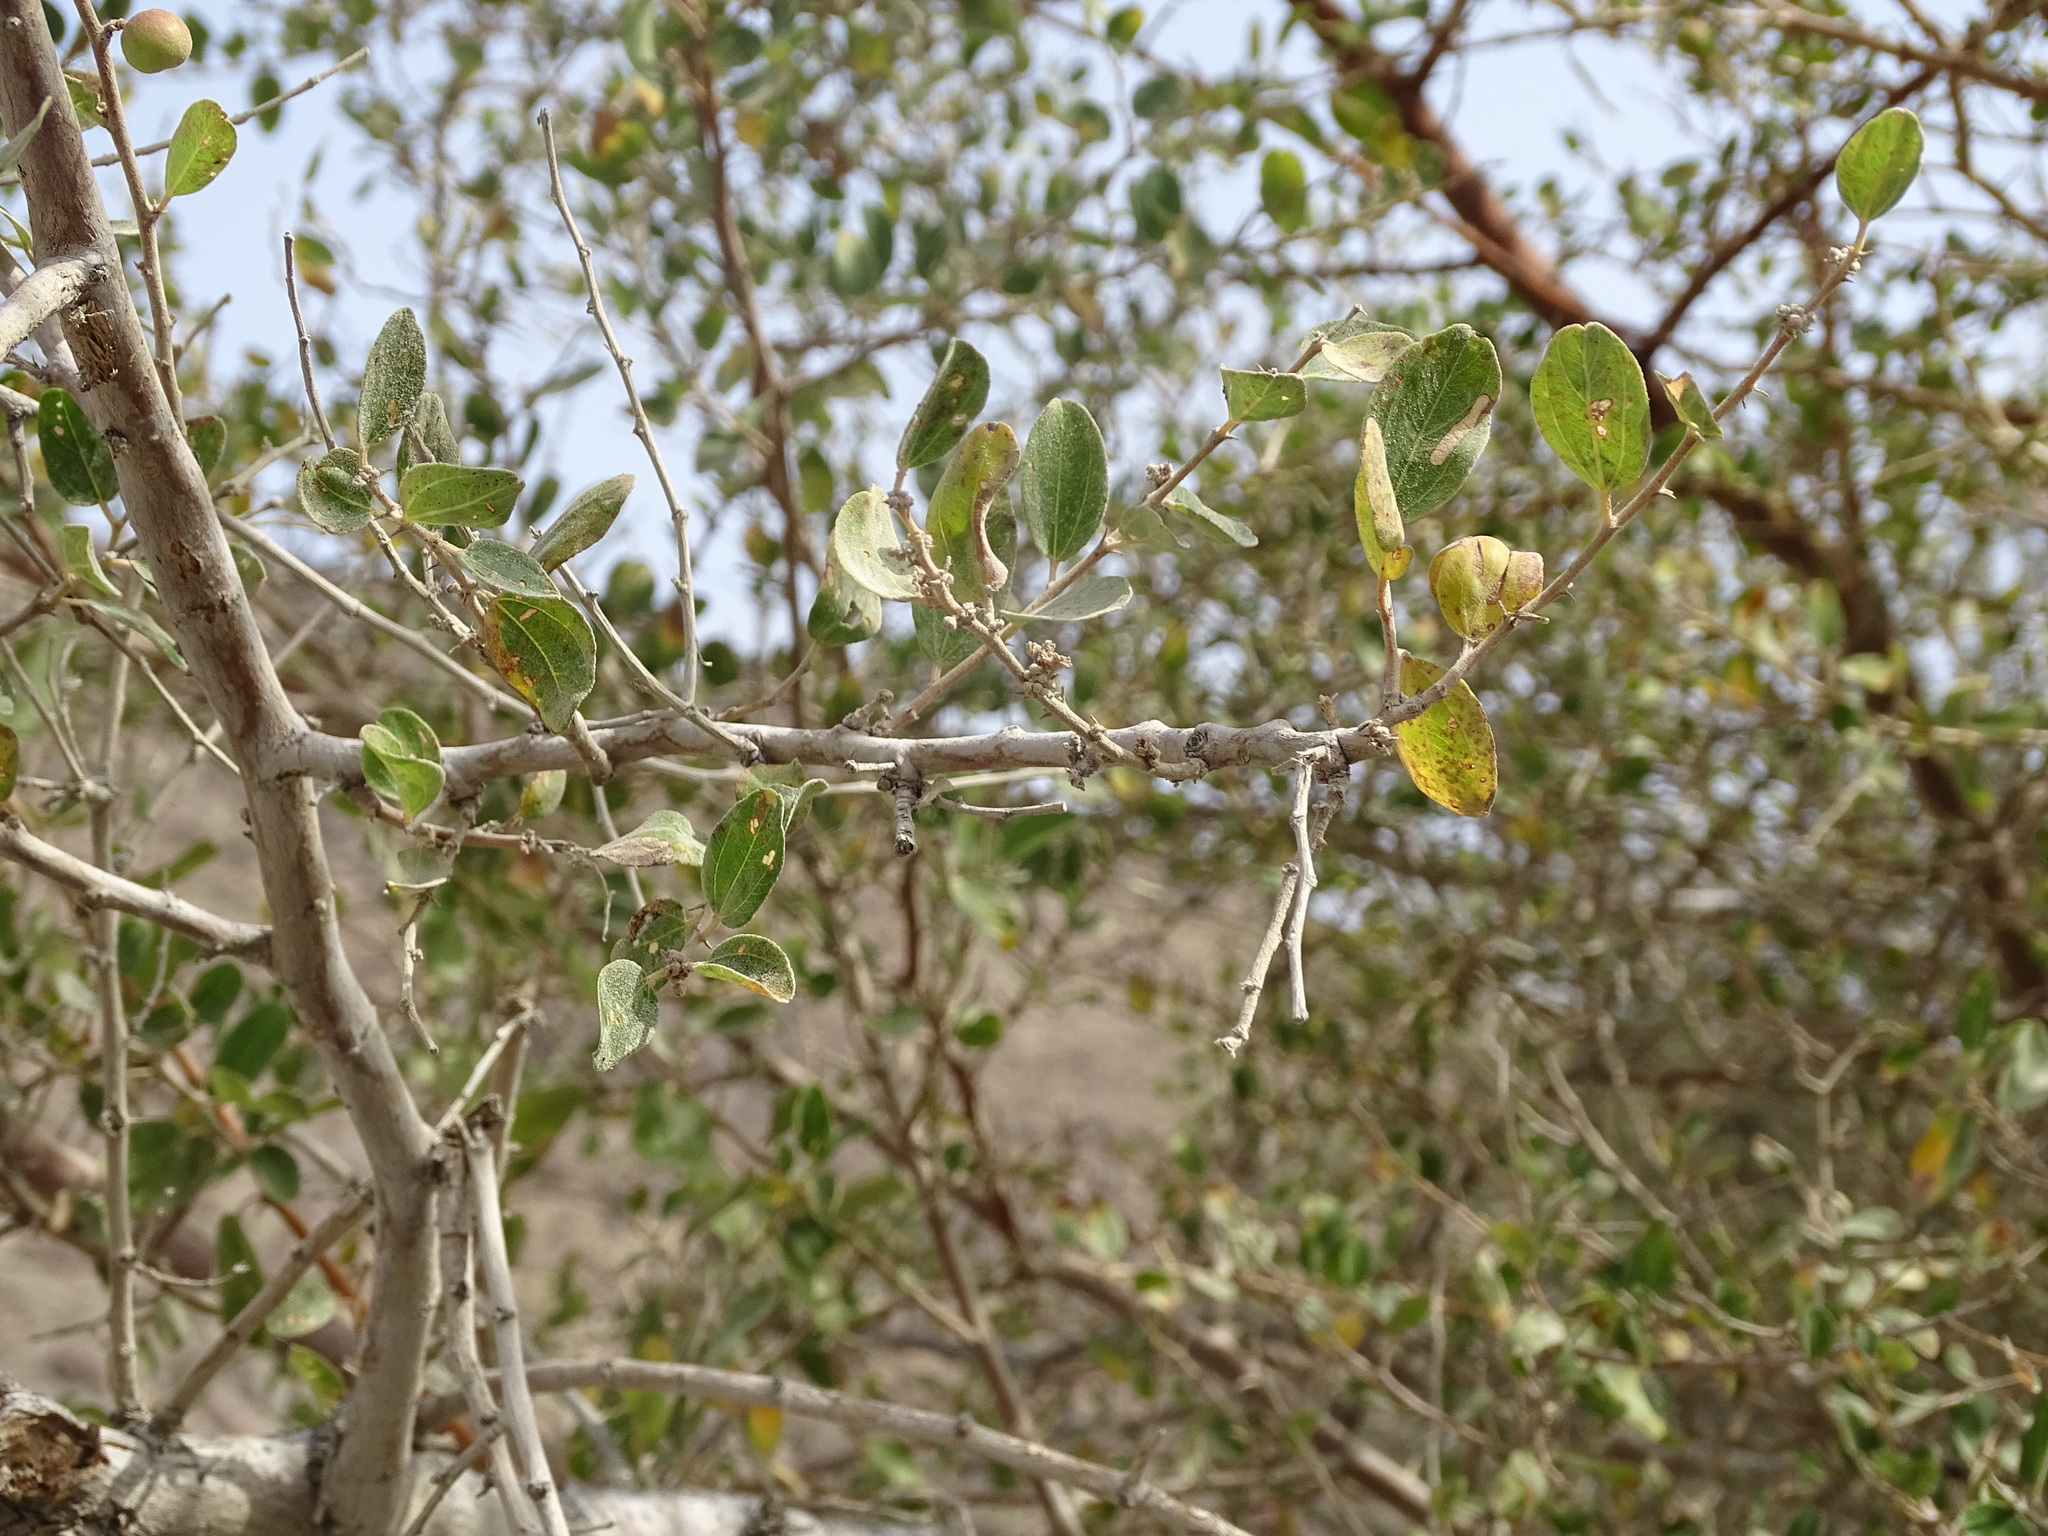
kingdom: Plantae
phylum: Tracheophyta
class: Magnoliopsida
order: Rosales
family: Rhamnaceae
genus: Ziziphus
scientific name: Ziziphus spina-christi
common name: Syrian christ-thorn
